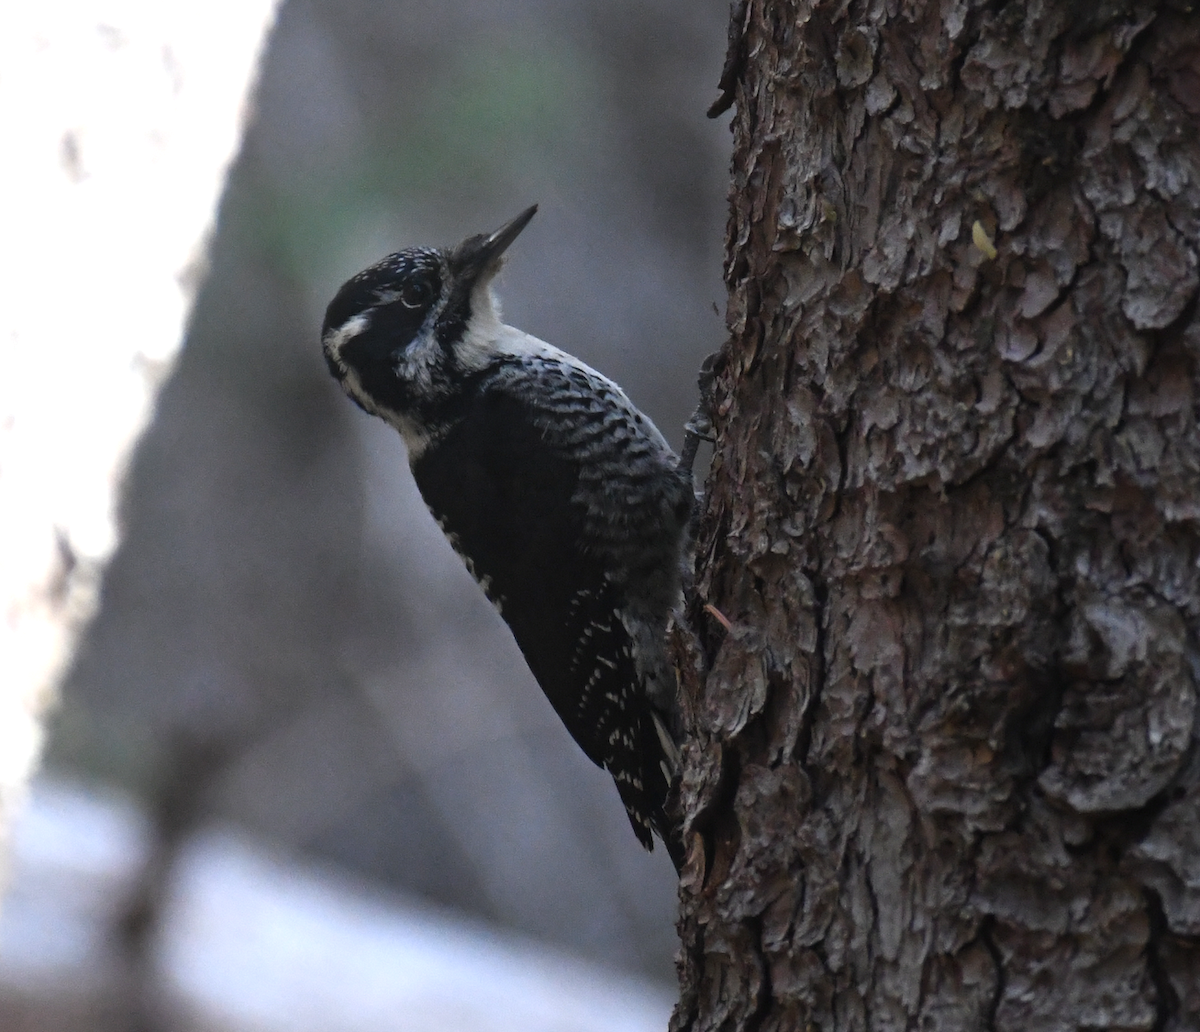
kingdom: Animalia
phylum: Chordata
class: Aves
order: Piciformes
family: Picidae
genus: Picoides
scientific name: Picoides dorsalis
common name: American three-toed woodpecker
